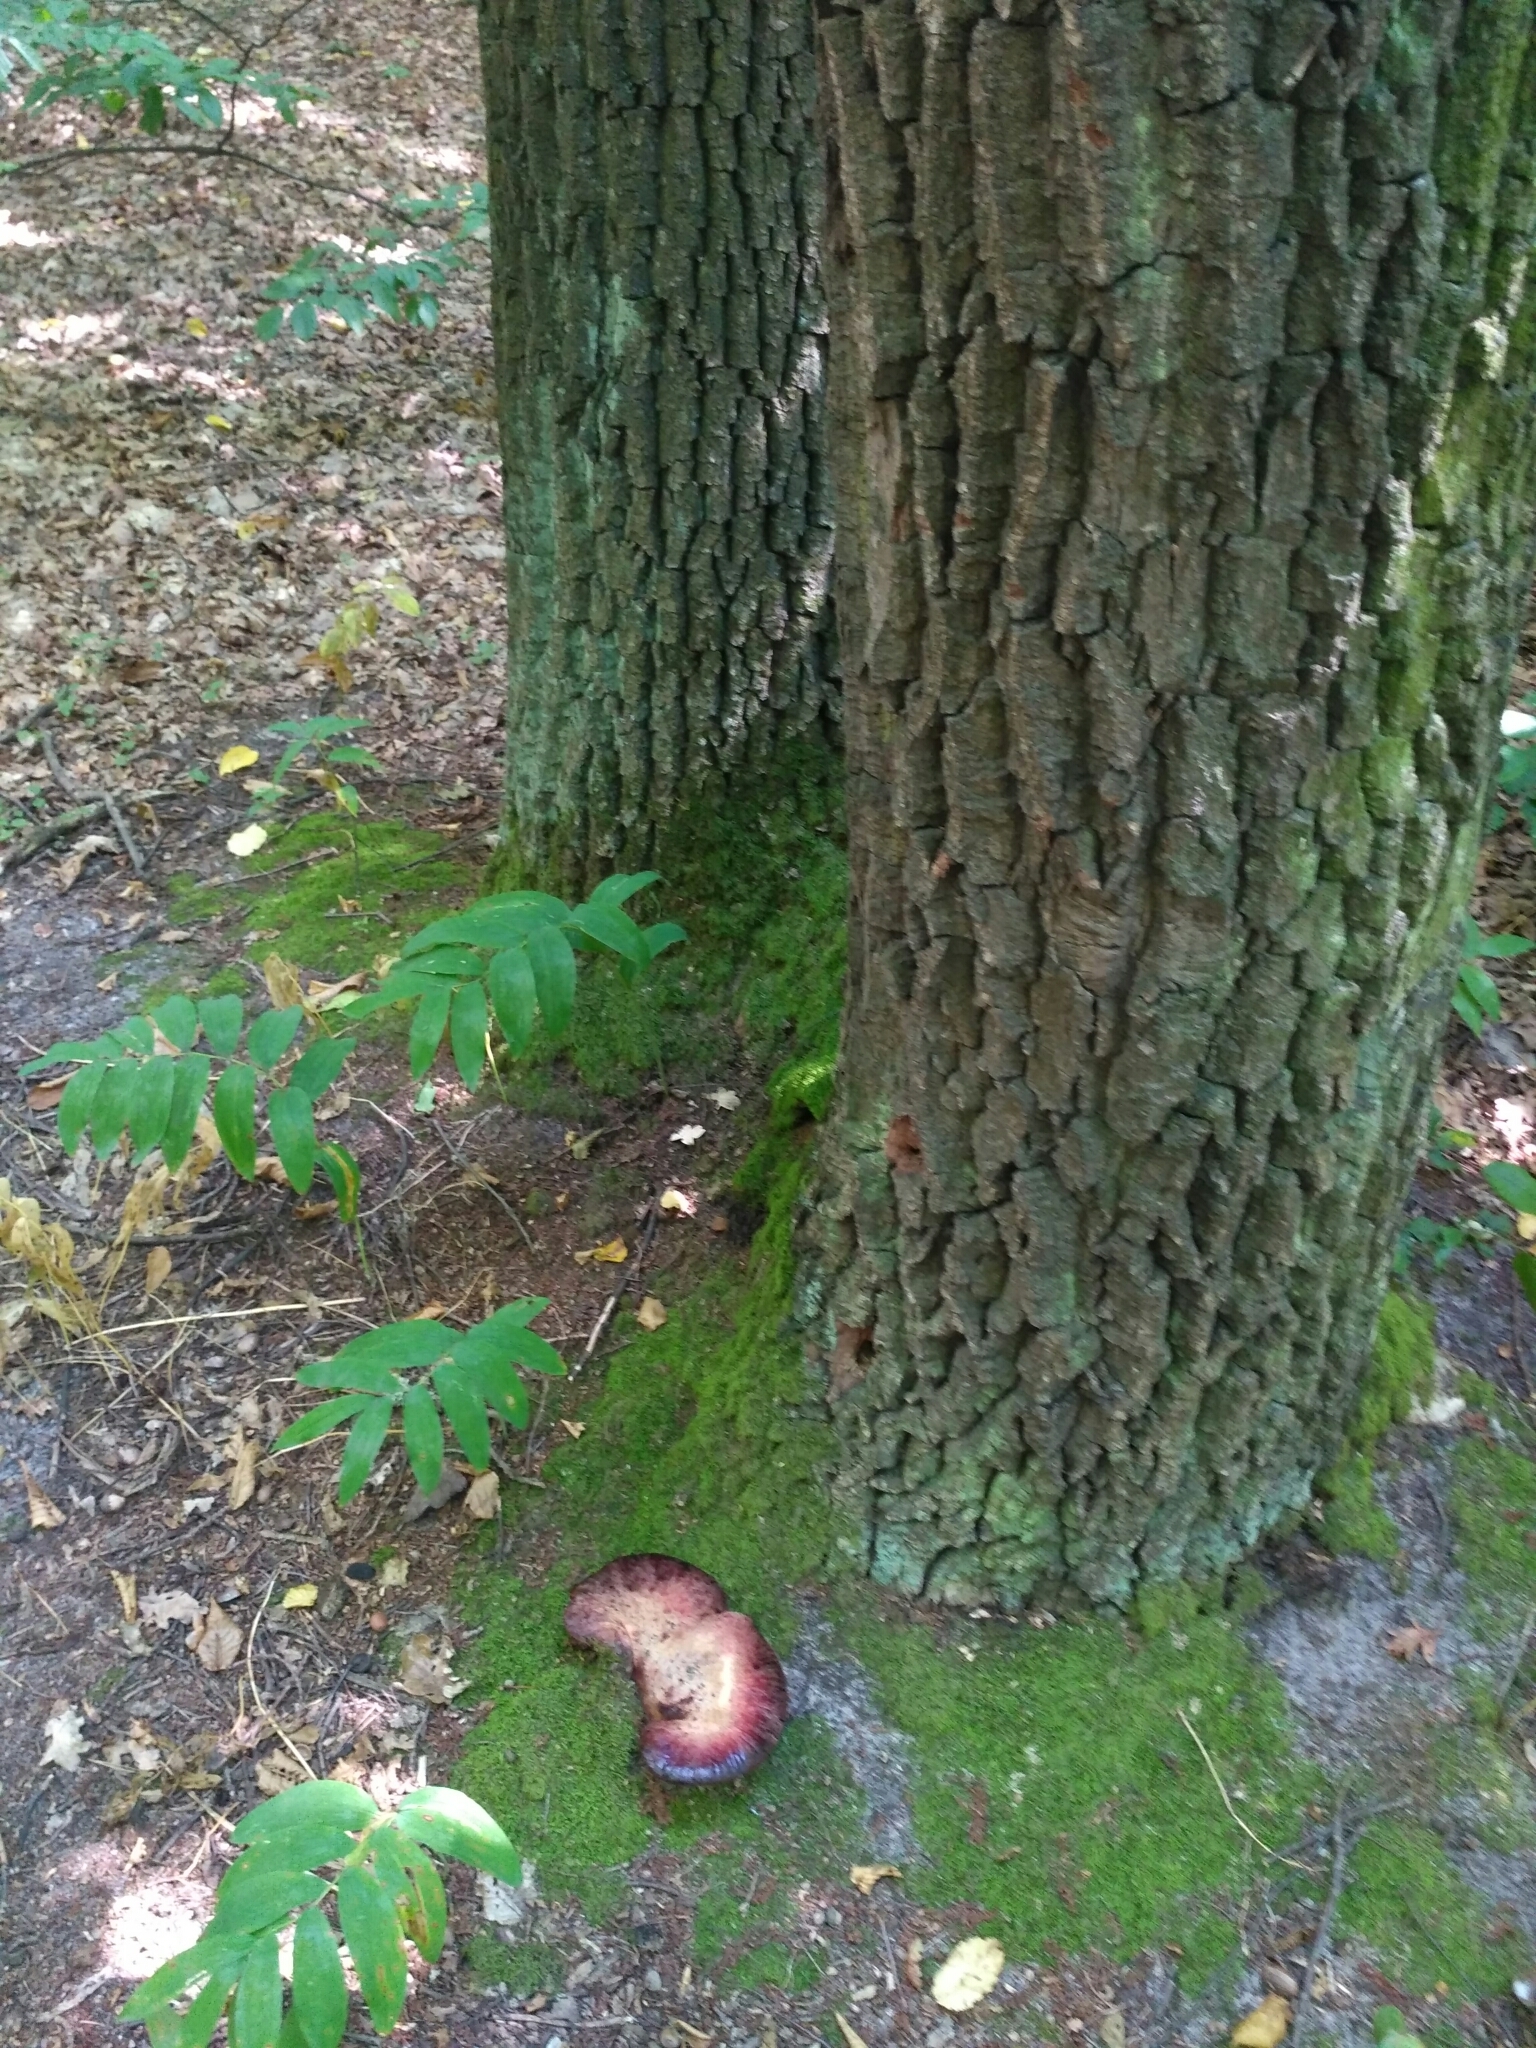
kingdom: Fungi
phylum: Basidiomycota
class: Agaricomycetes
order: Agaricales
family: Fistulinaceae
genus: Fistulina
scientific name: Fistulina hepatica
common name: Beef-steak fungus
